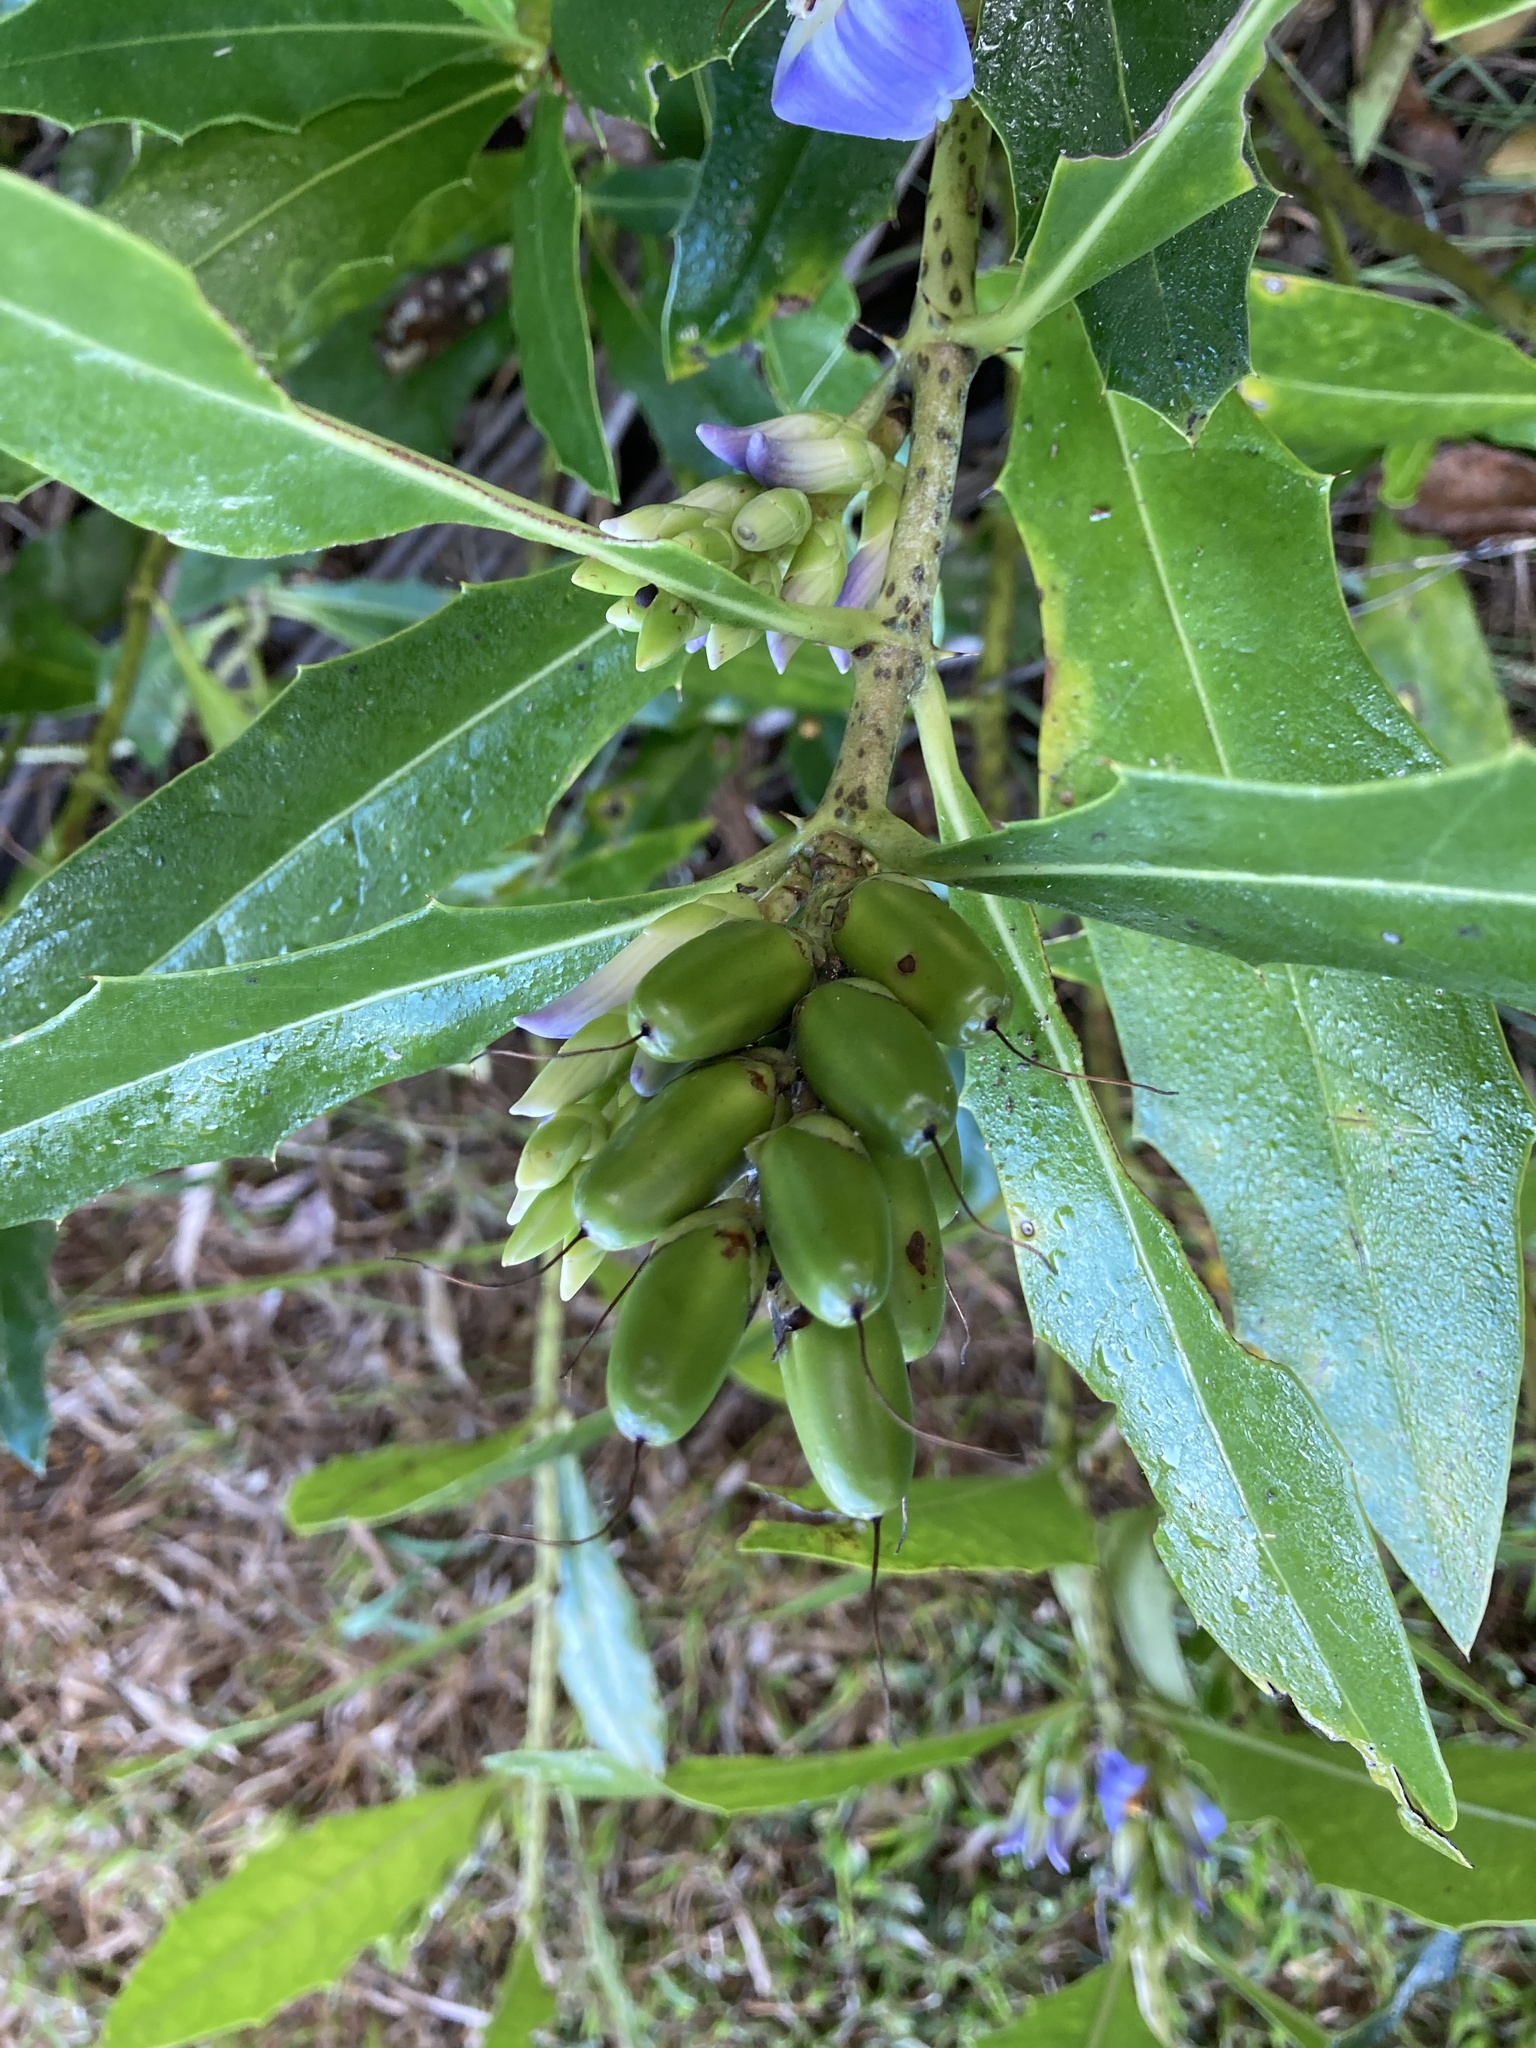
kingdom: Plantae
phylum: Tracheophyta
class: Magnoliopsida
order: Lamiales
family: Acanthaceae
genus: Acanthus
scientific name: Acanthus ilicifolius
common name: Holy mangrove
